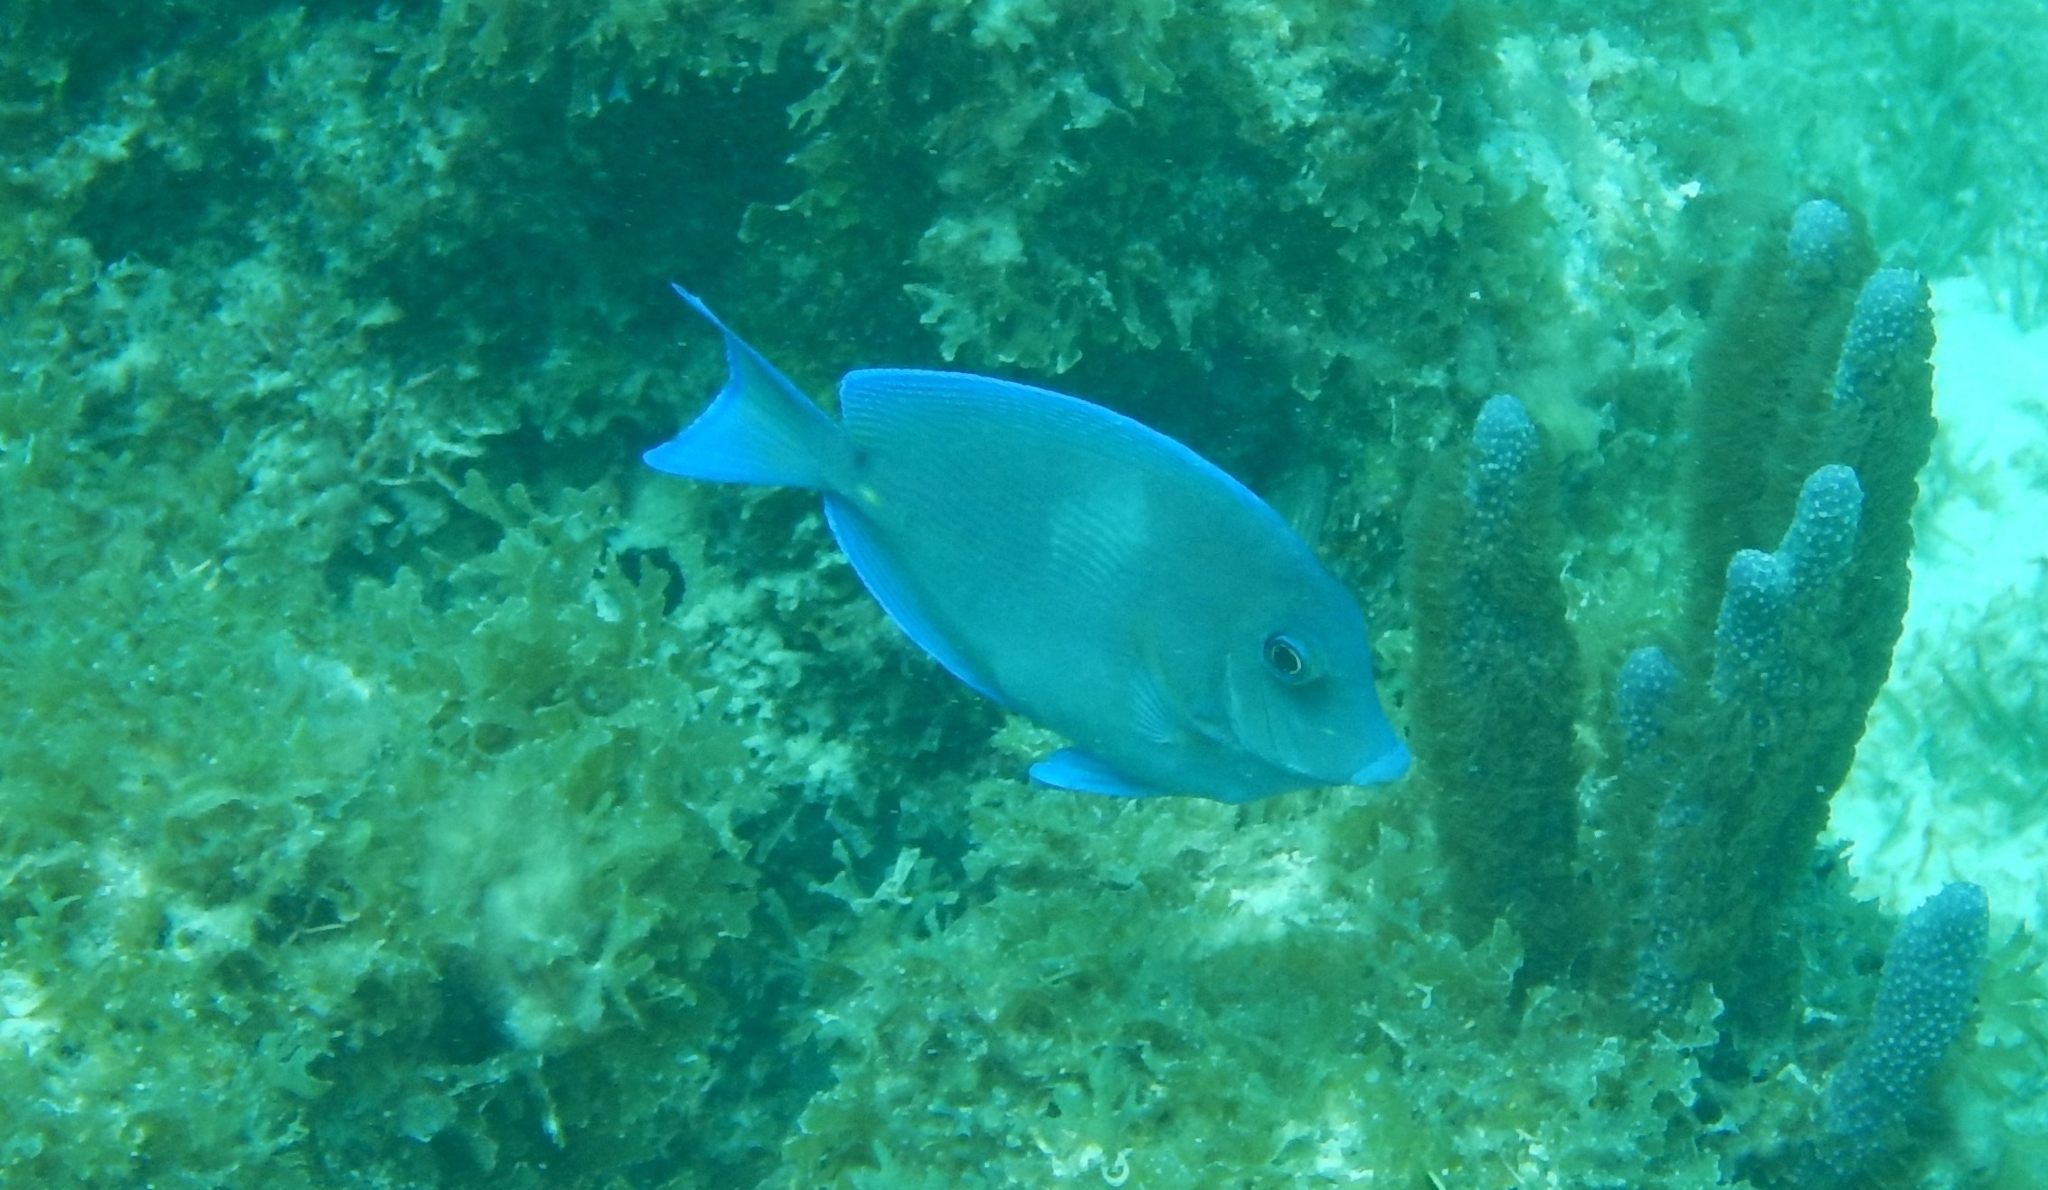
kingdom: Animalia
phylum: Chordata
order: Perciformes
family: Acanthuridae
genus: Acanthurus
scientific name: Acanthurus coeruleus
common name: Blue tang
